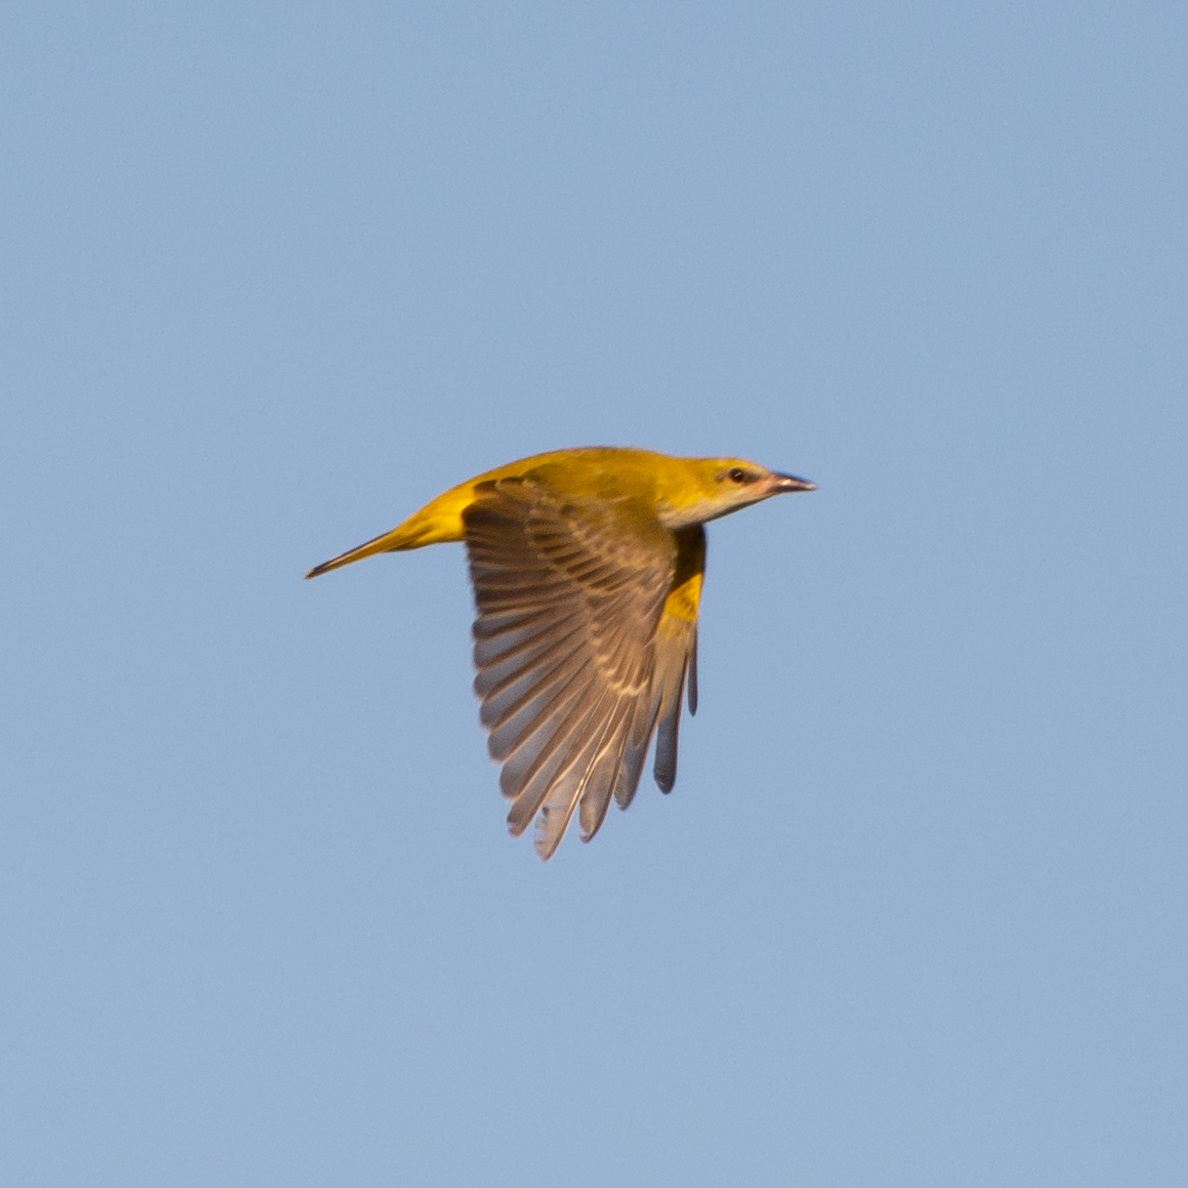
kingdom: Animalia
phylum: Chordata
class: Aves
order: Passeriformes
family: Oriolidae
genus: Oriolus
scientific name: Oriolus oriolus
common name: Eurasian golden oriole
